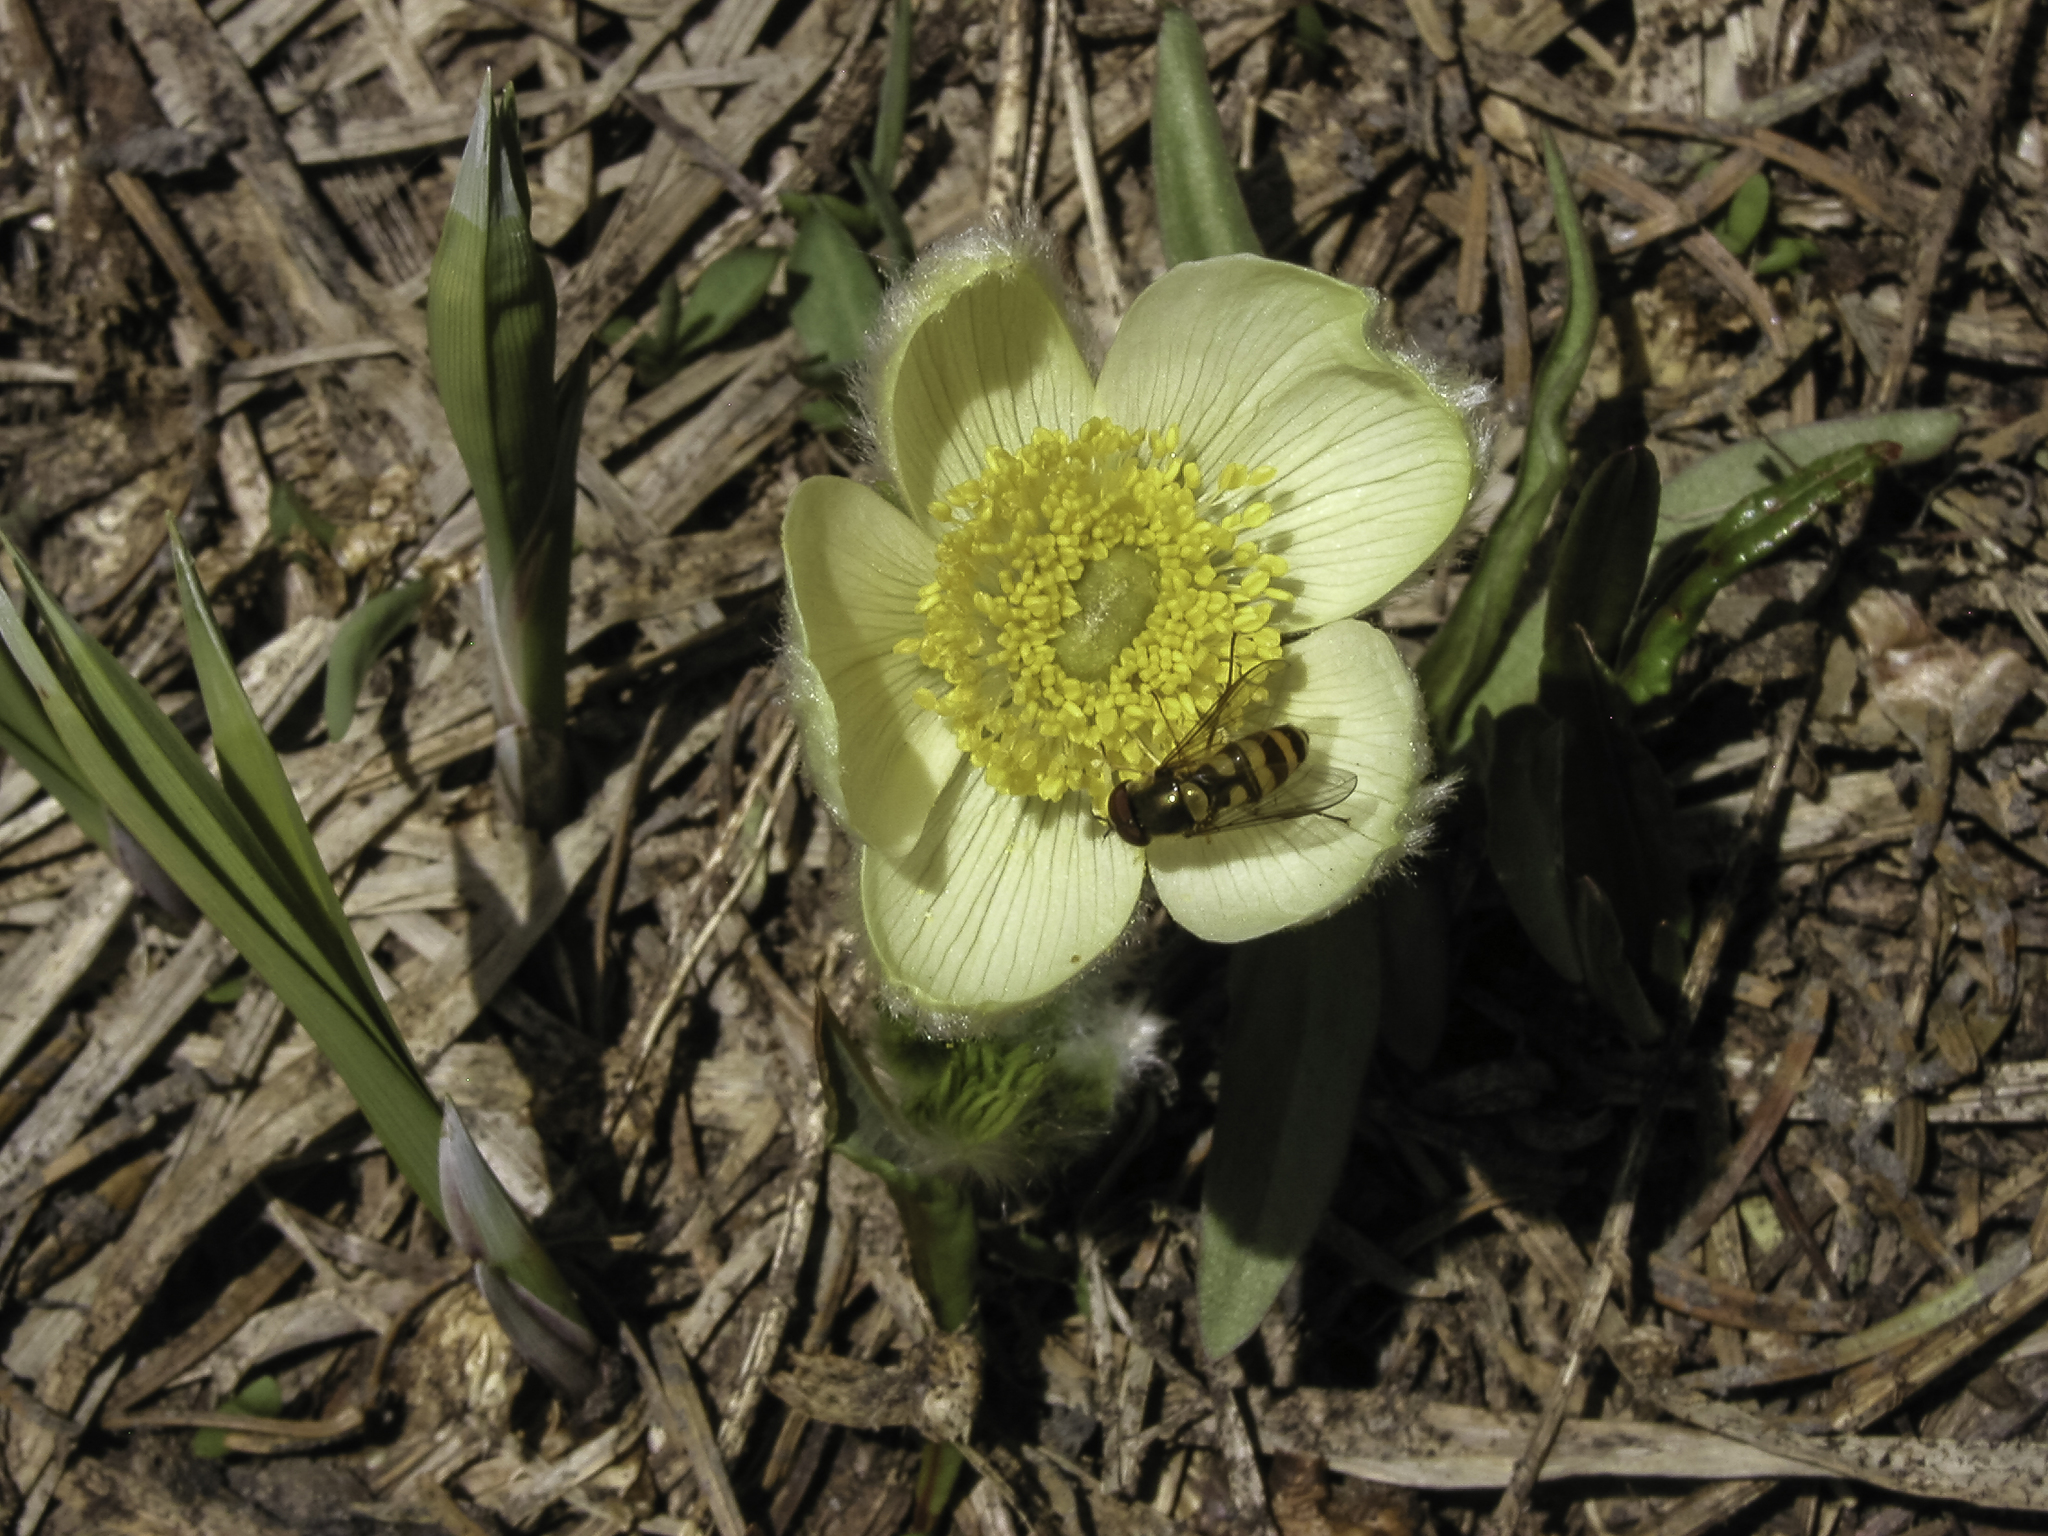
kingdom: Plantae
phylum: Tracheophyta
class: Magnoliopsida
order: Ranunculales
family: Ranunculaceae
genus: Pulsatilla
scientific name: Pulsatilla occidentalis
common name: Mountain pasqueflower
